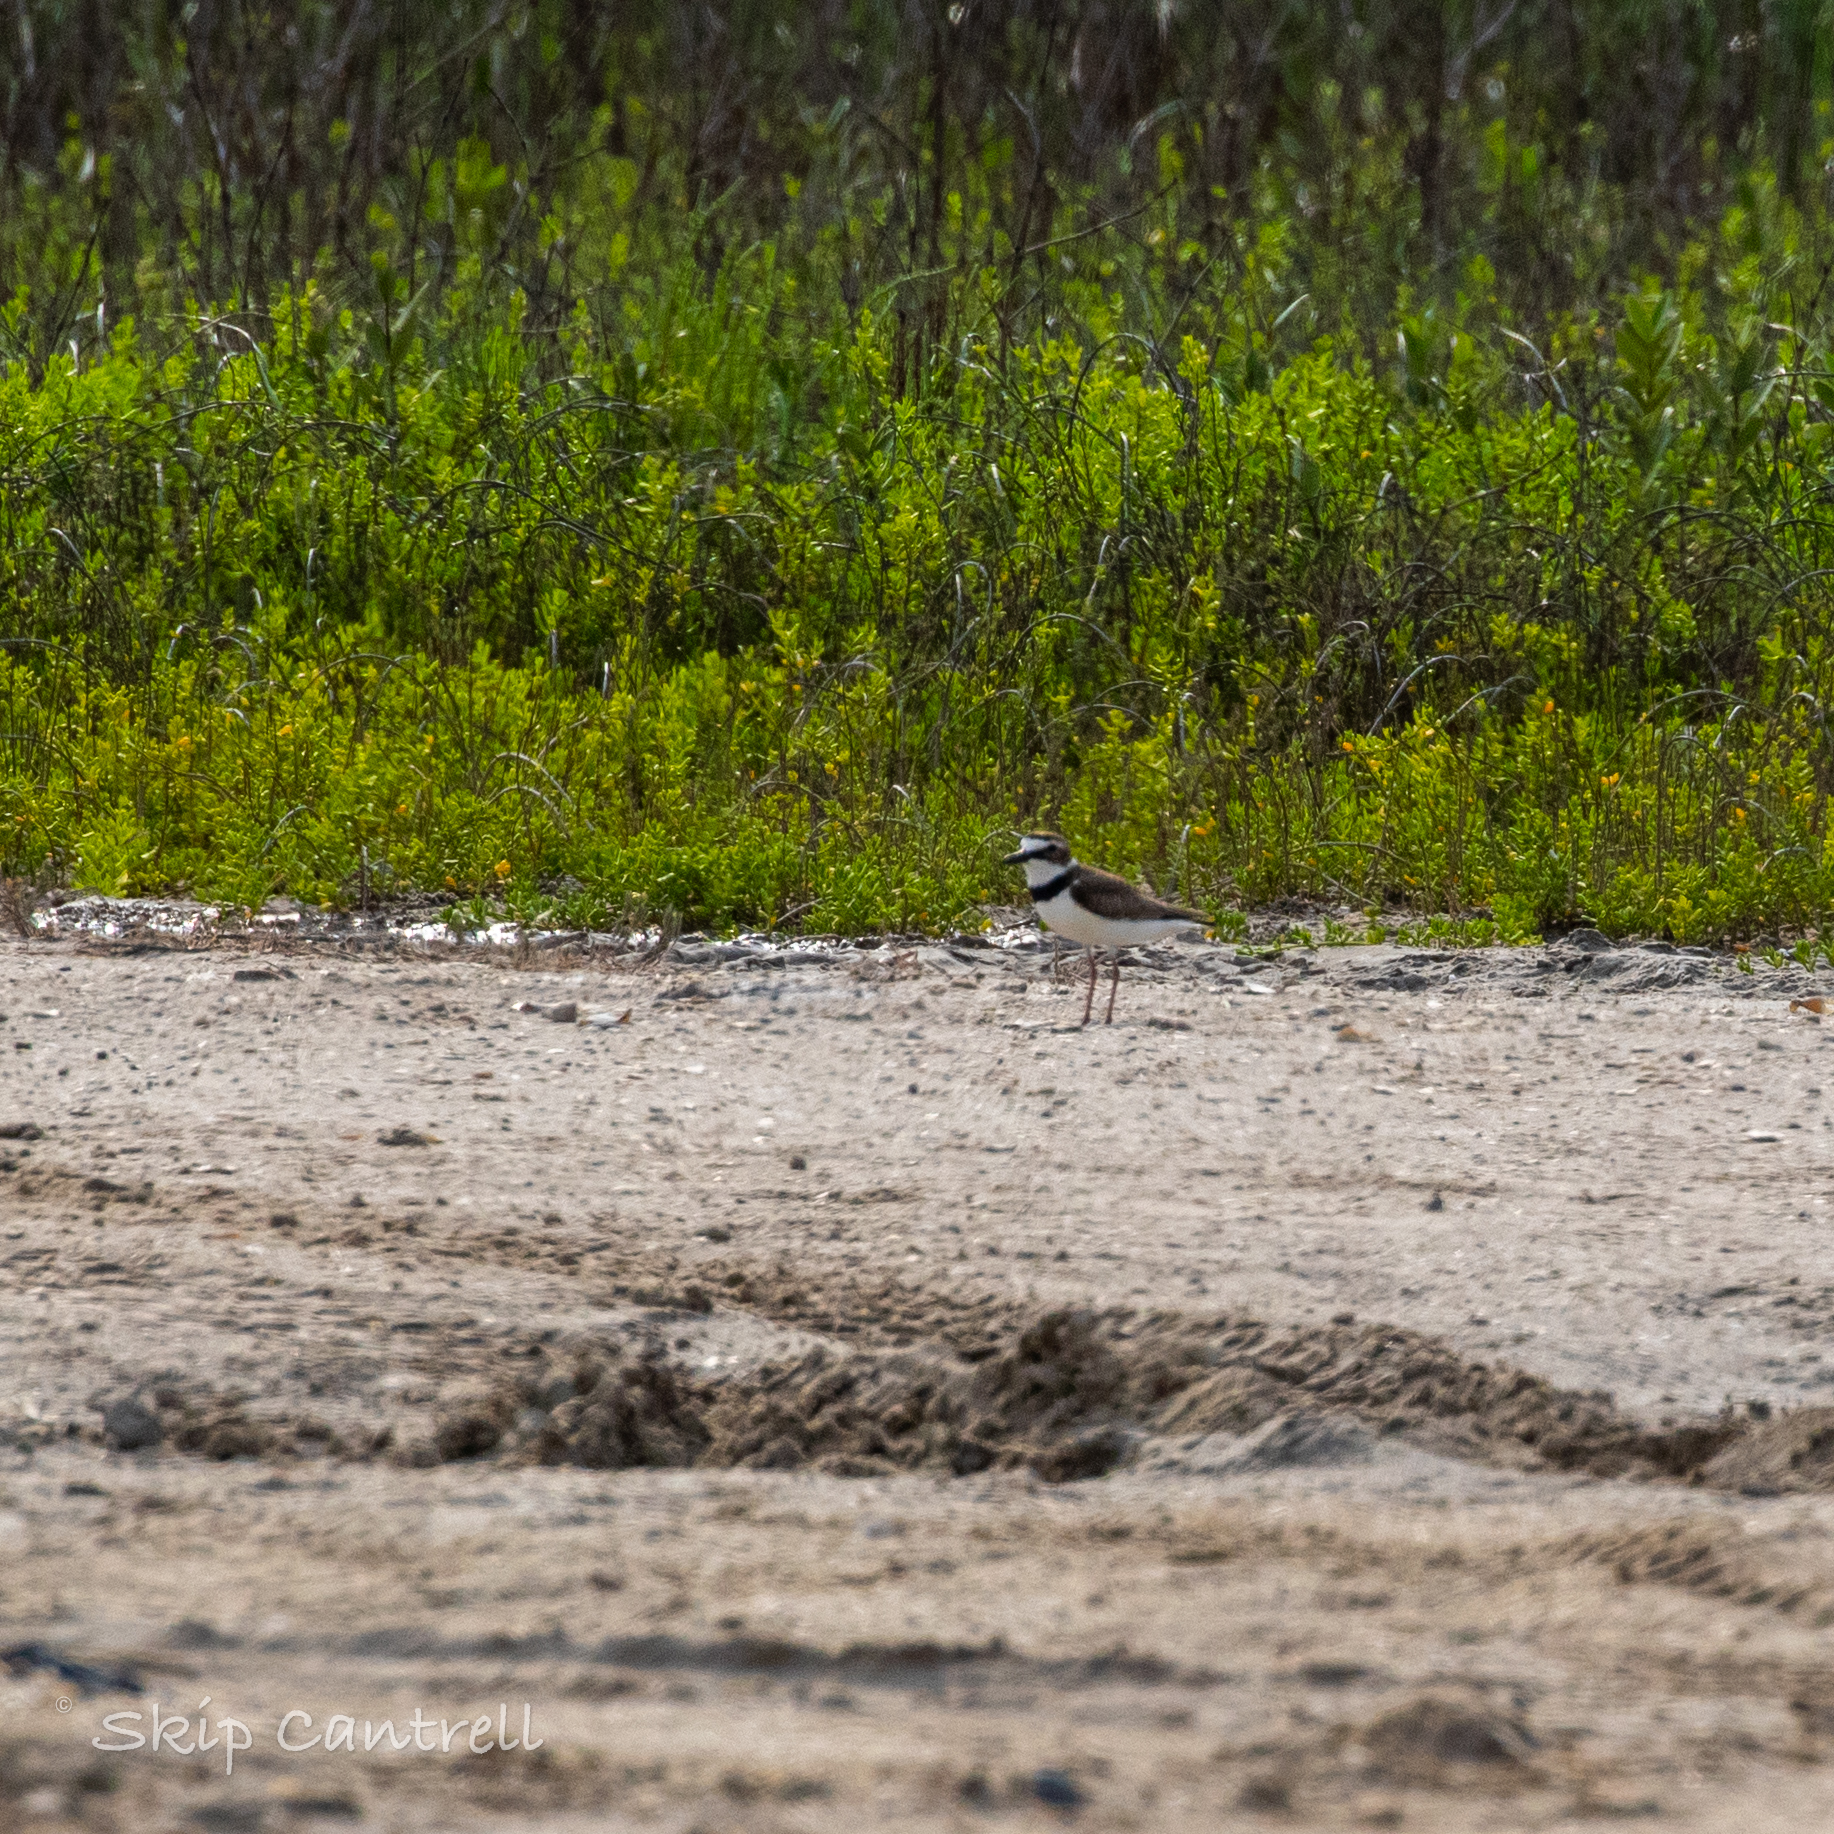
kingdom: Animalia
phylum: Chordata
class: Aves
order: Charadriiformes
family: Charadriidae
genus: Anarhynchus
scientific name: Anarhynchus
